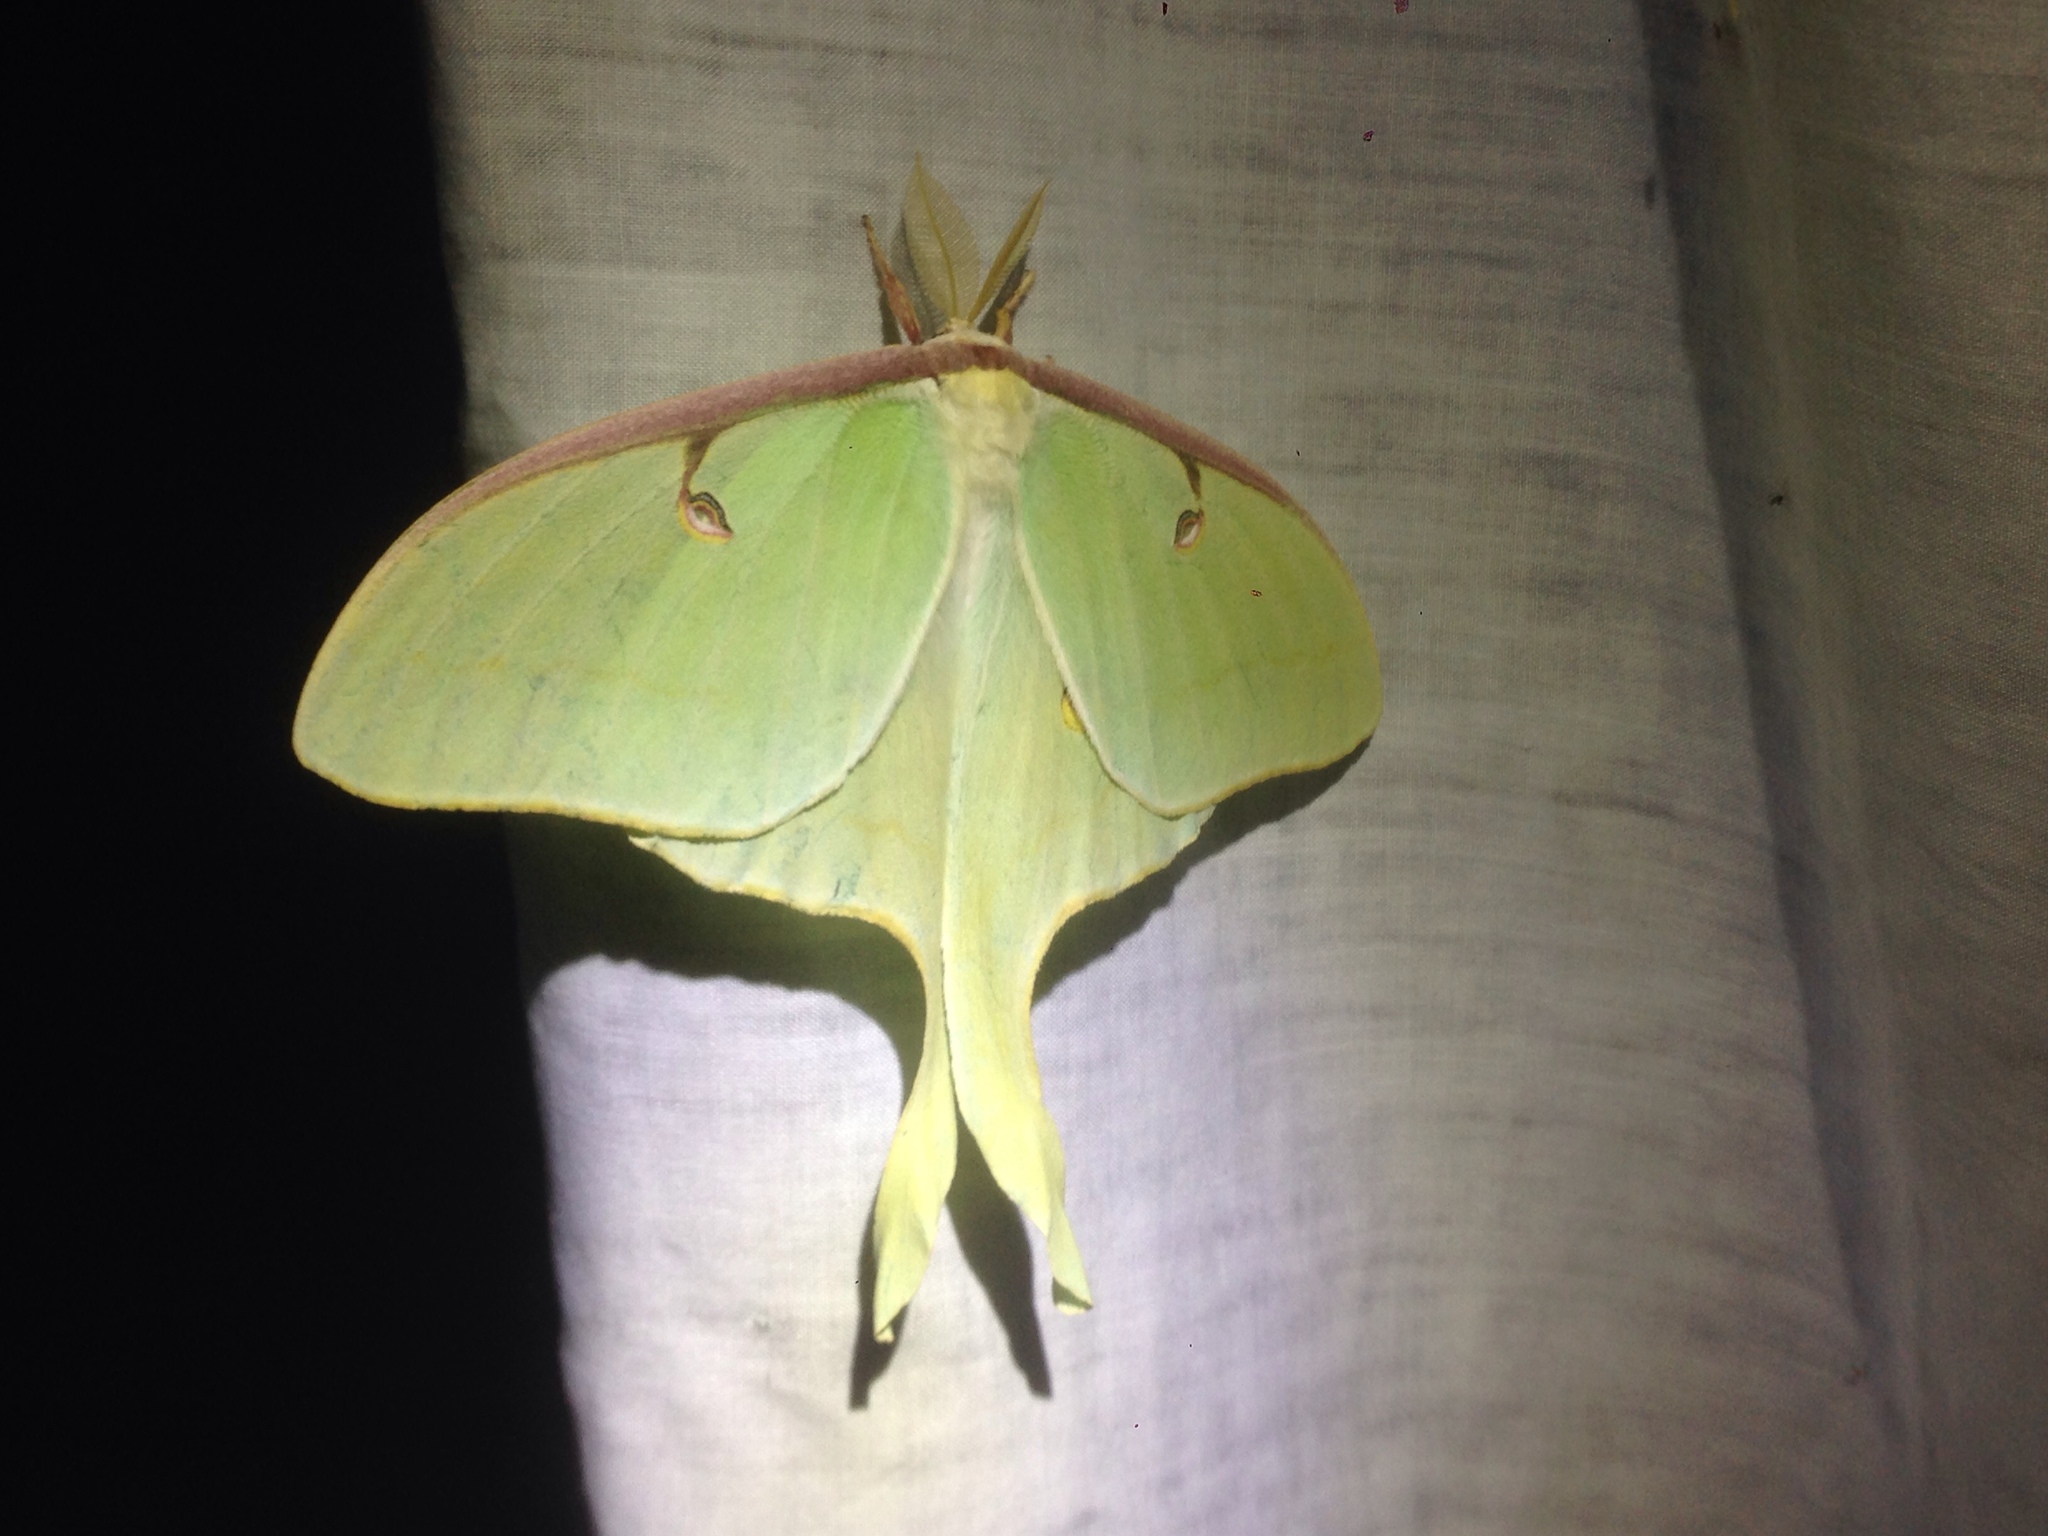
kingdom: Animalia
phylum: Arthropoda
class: Insecta
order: Lepidoptera
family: Saturniidae
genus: Actias
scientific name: Actias luna
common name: Luna moth
